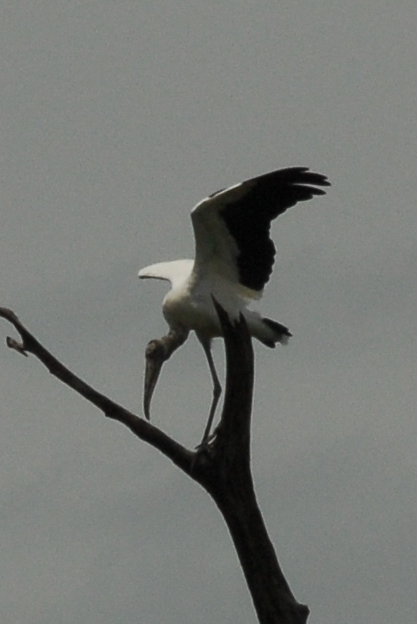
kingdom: Animalia
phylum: Chordata
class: Aves
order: Ciconiiformes
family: Ciconiidae
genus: Mycteria
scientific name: Mycteria americana
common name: Wood stork
